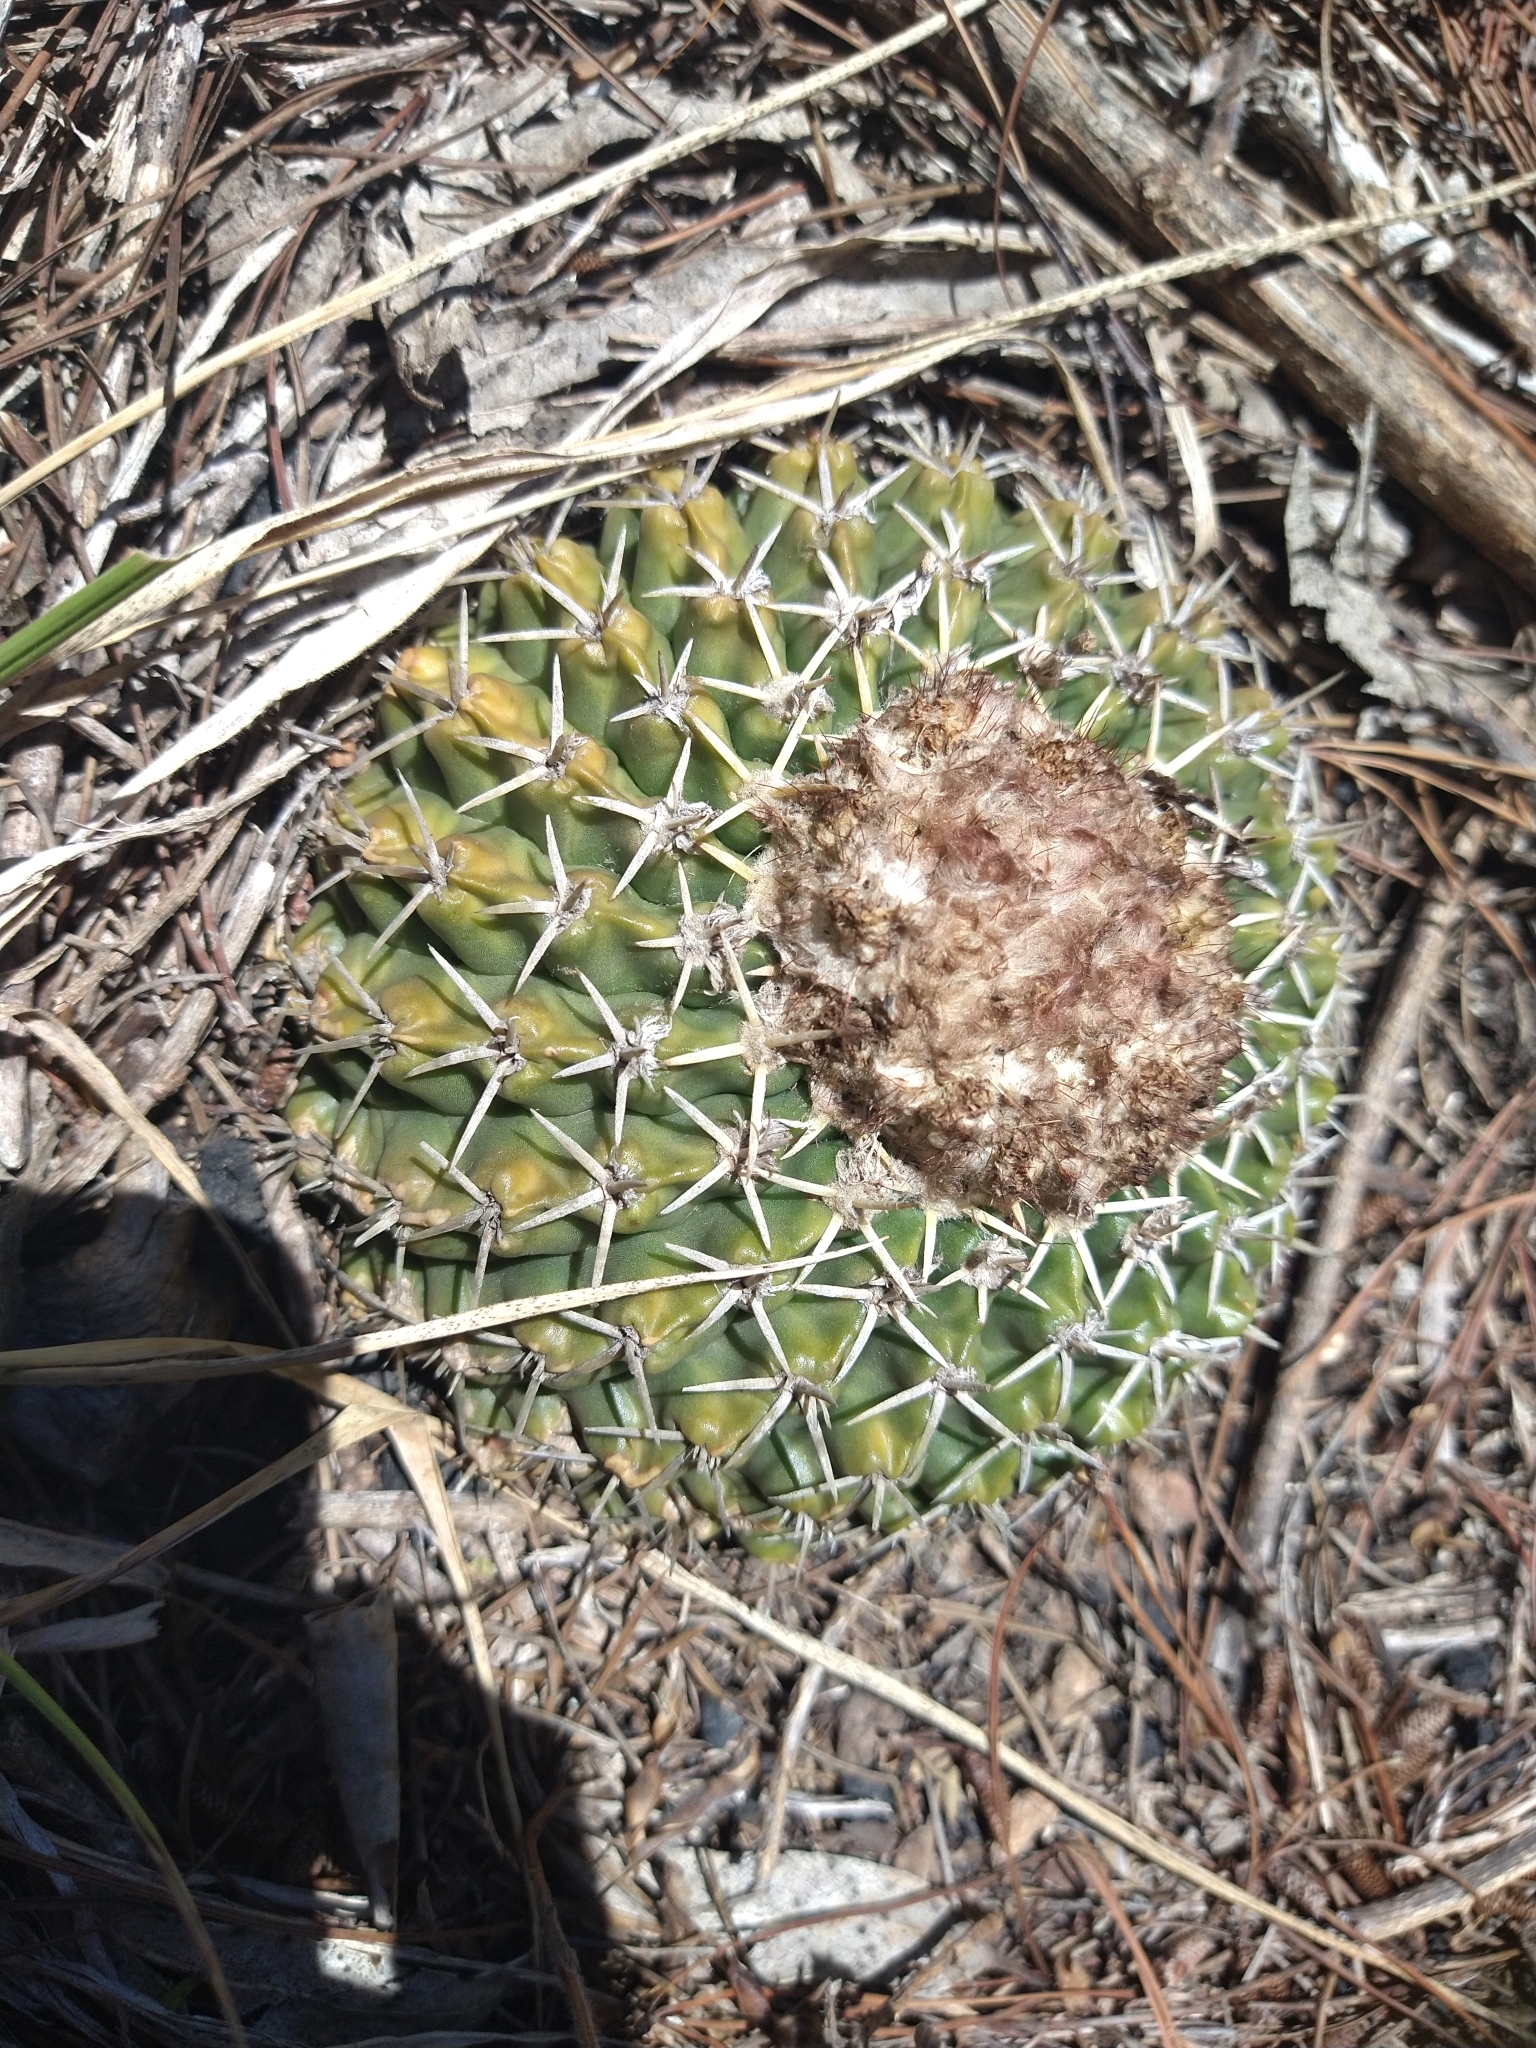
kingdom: Plantae
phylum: Tracheophyta
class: Magnoliopsida
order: Caryophyllales
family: Cactaceae
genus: Parodia
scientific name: Parodia erinacea
